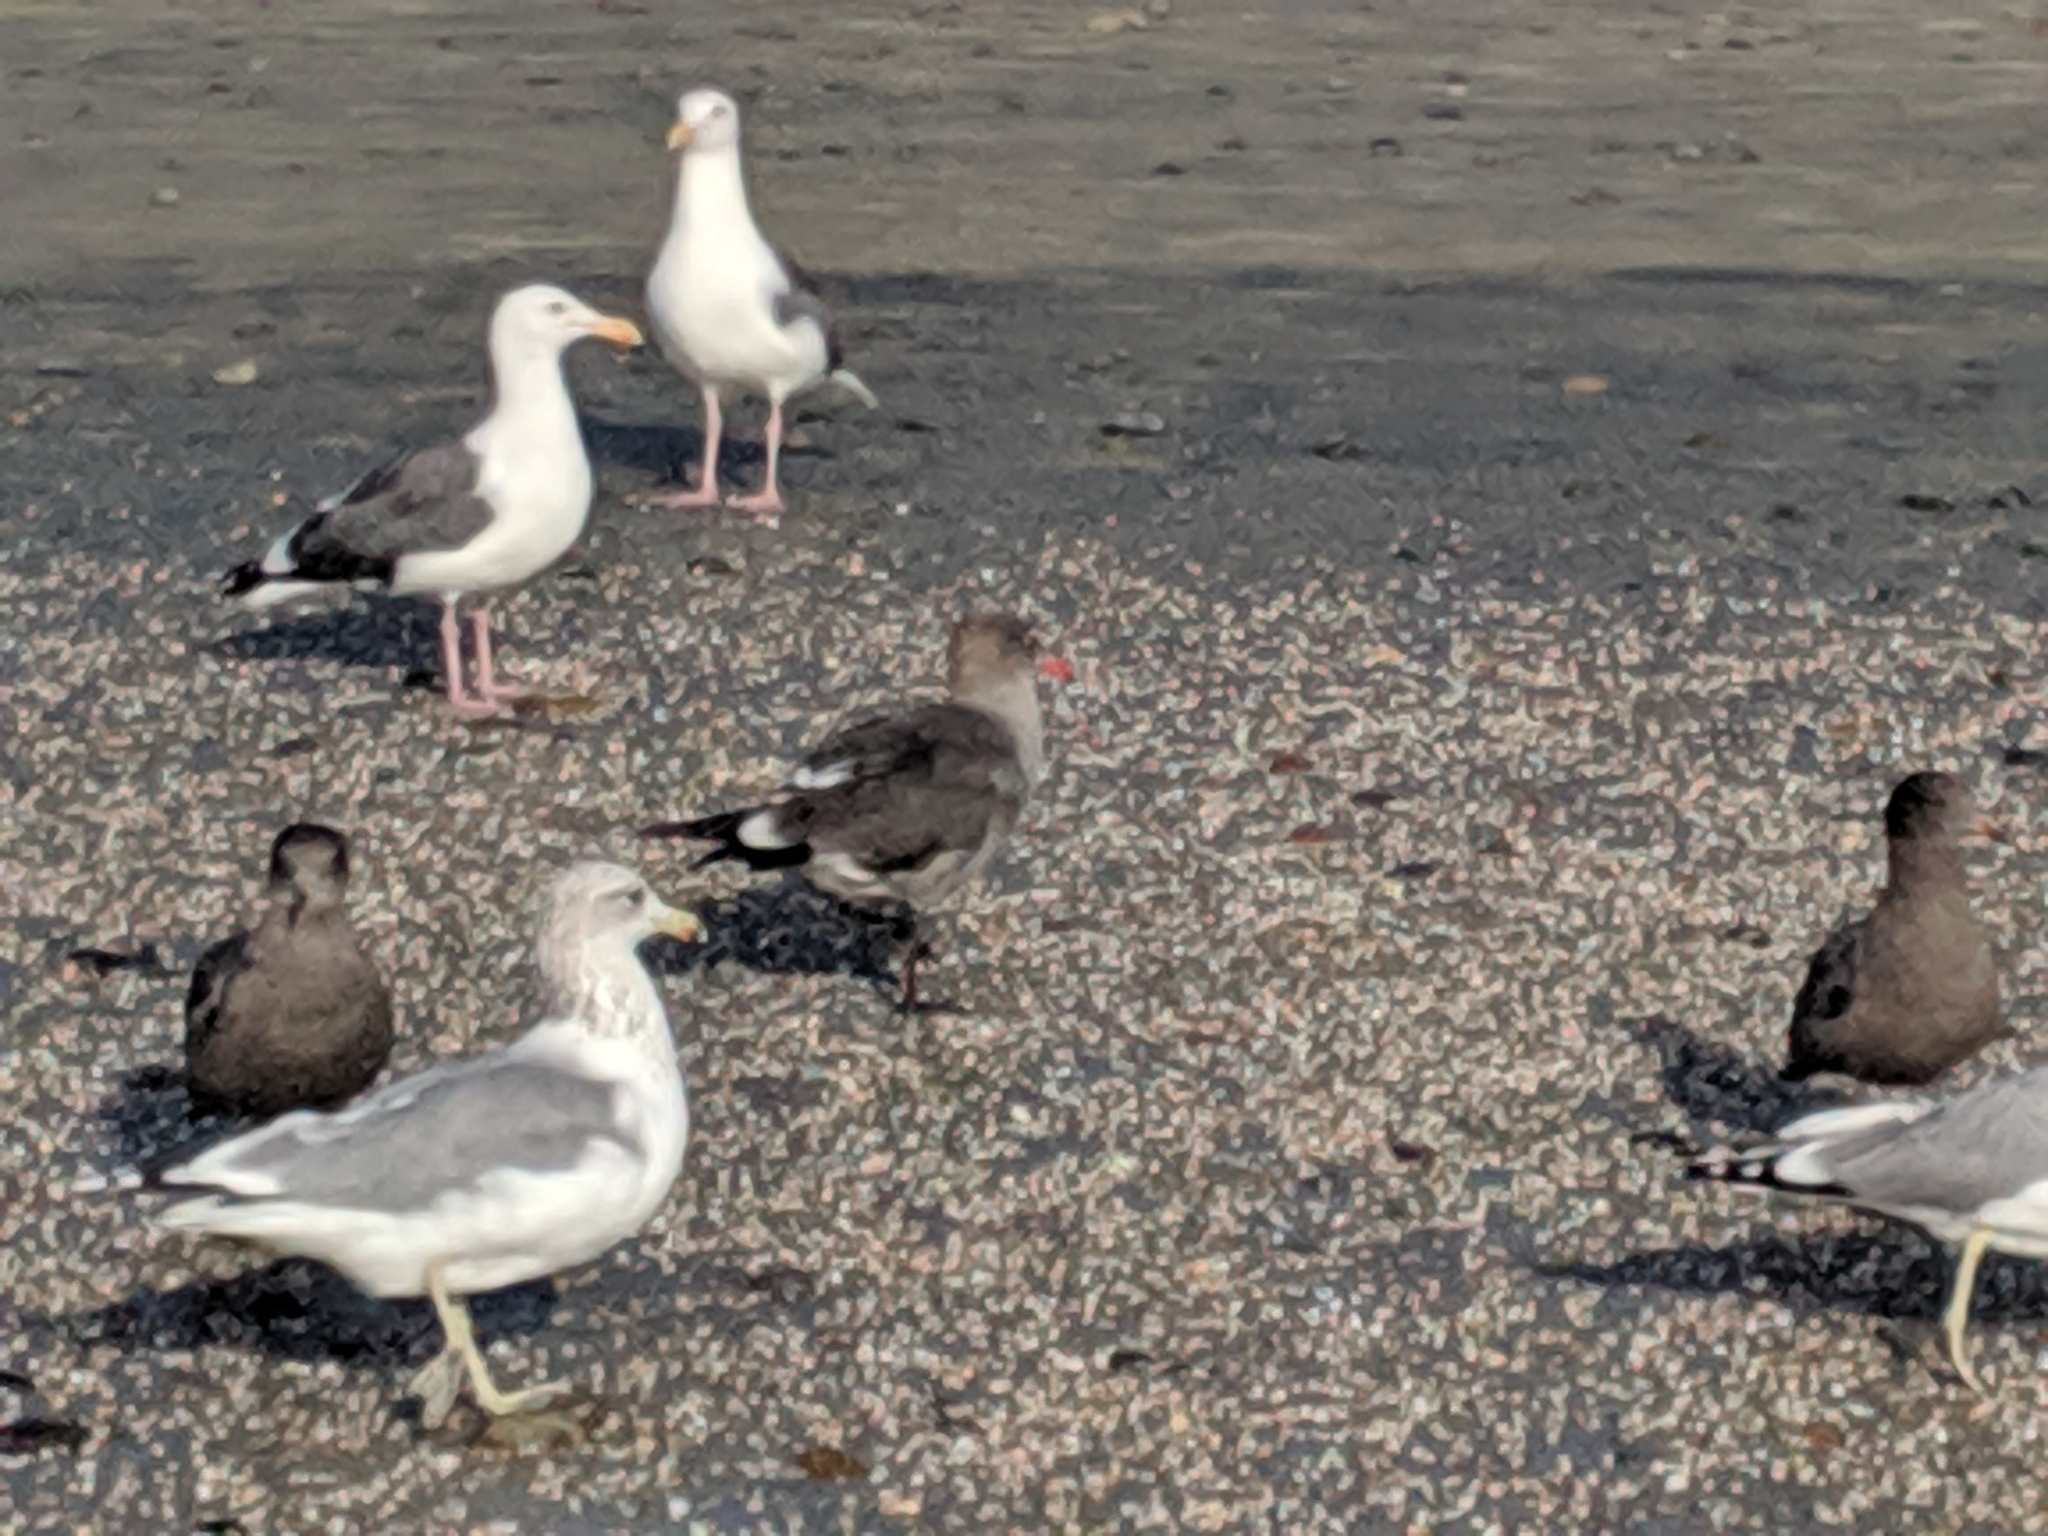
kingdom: Animalia
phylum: Chordata
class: Aves
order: Charadriiformes
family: Laridae
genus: Larus
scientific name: Larus heermanni
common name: Heermann's gull
